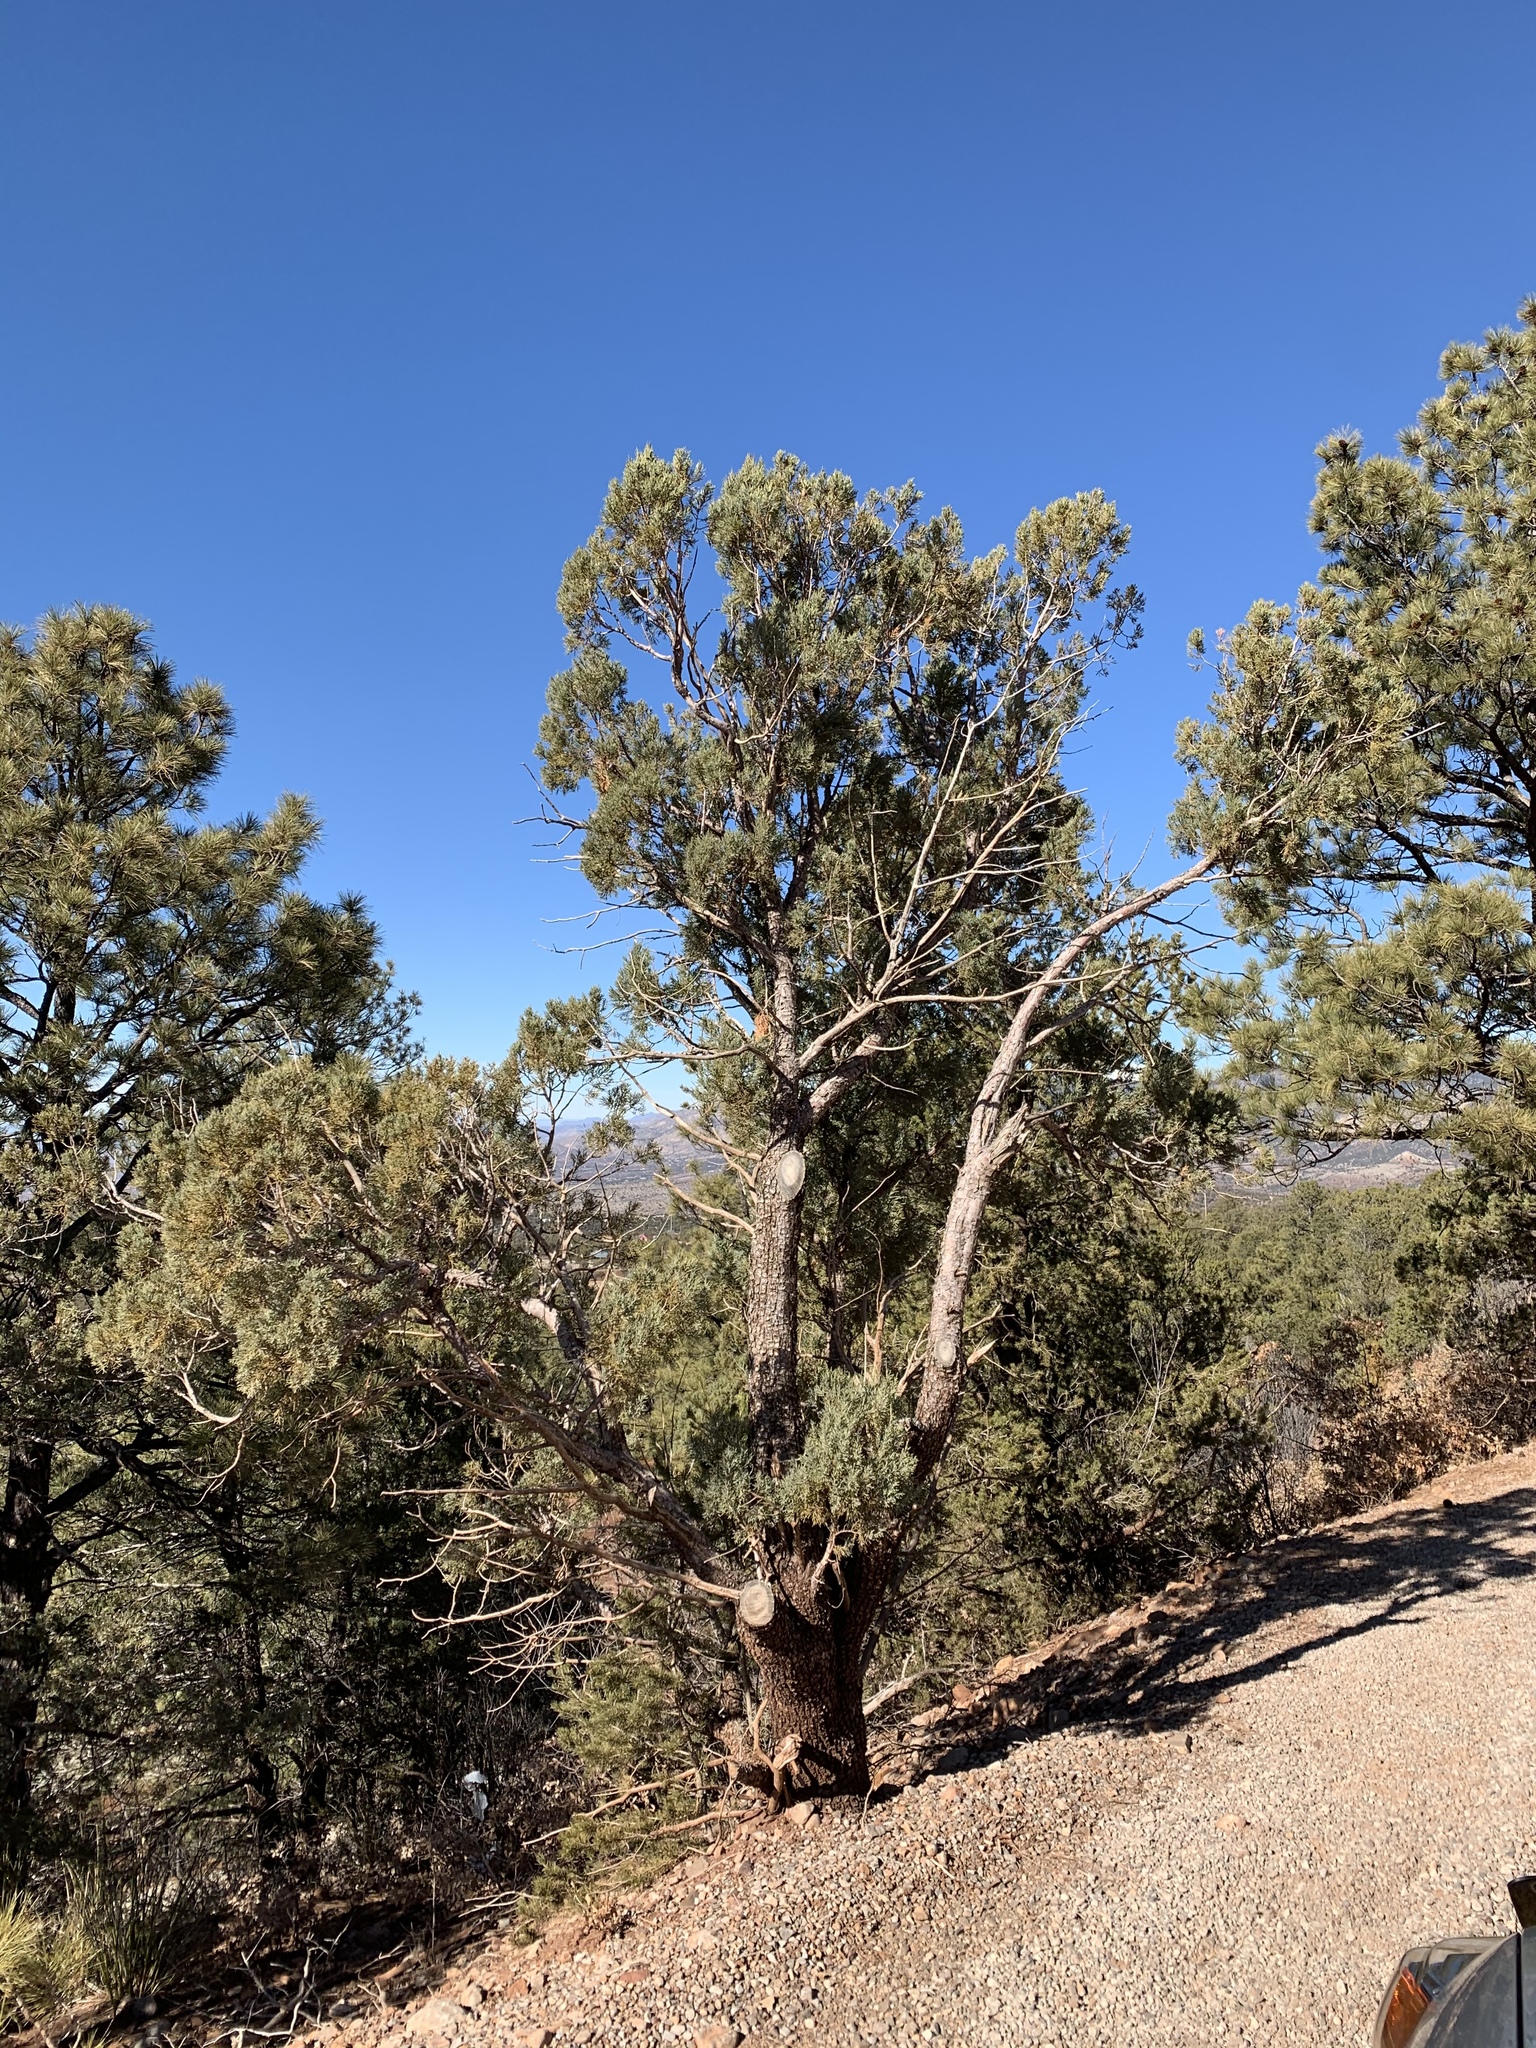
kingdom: Plantae
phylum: Tracheophyta
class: Pinopsida
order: Pinales
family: Cupressaceae
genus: Juniperus
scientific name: Juniperus deppeana
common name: Alligator juniper
